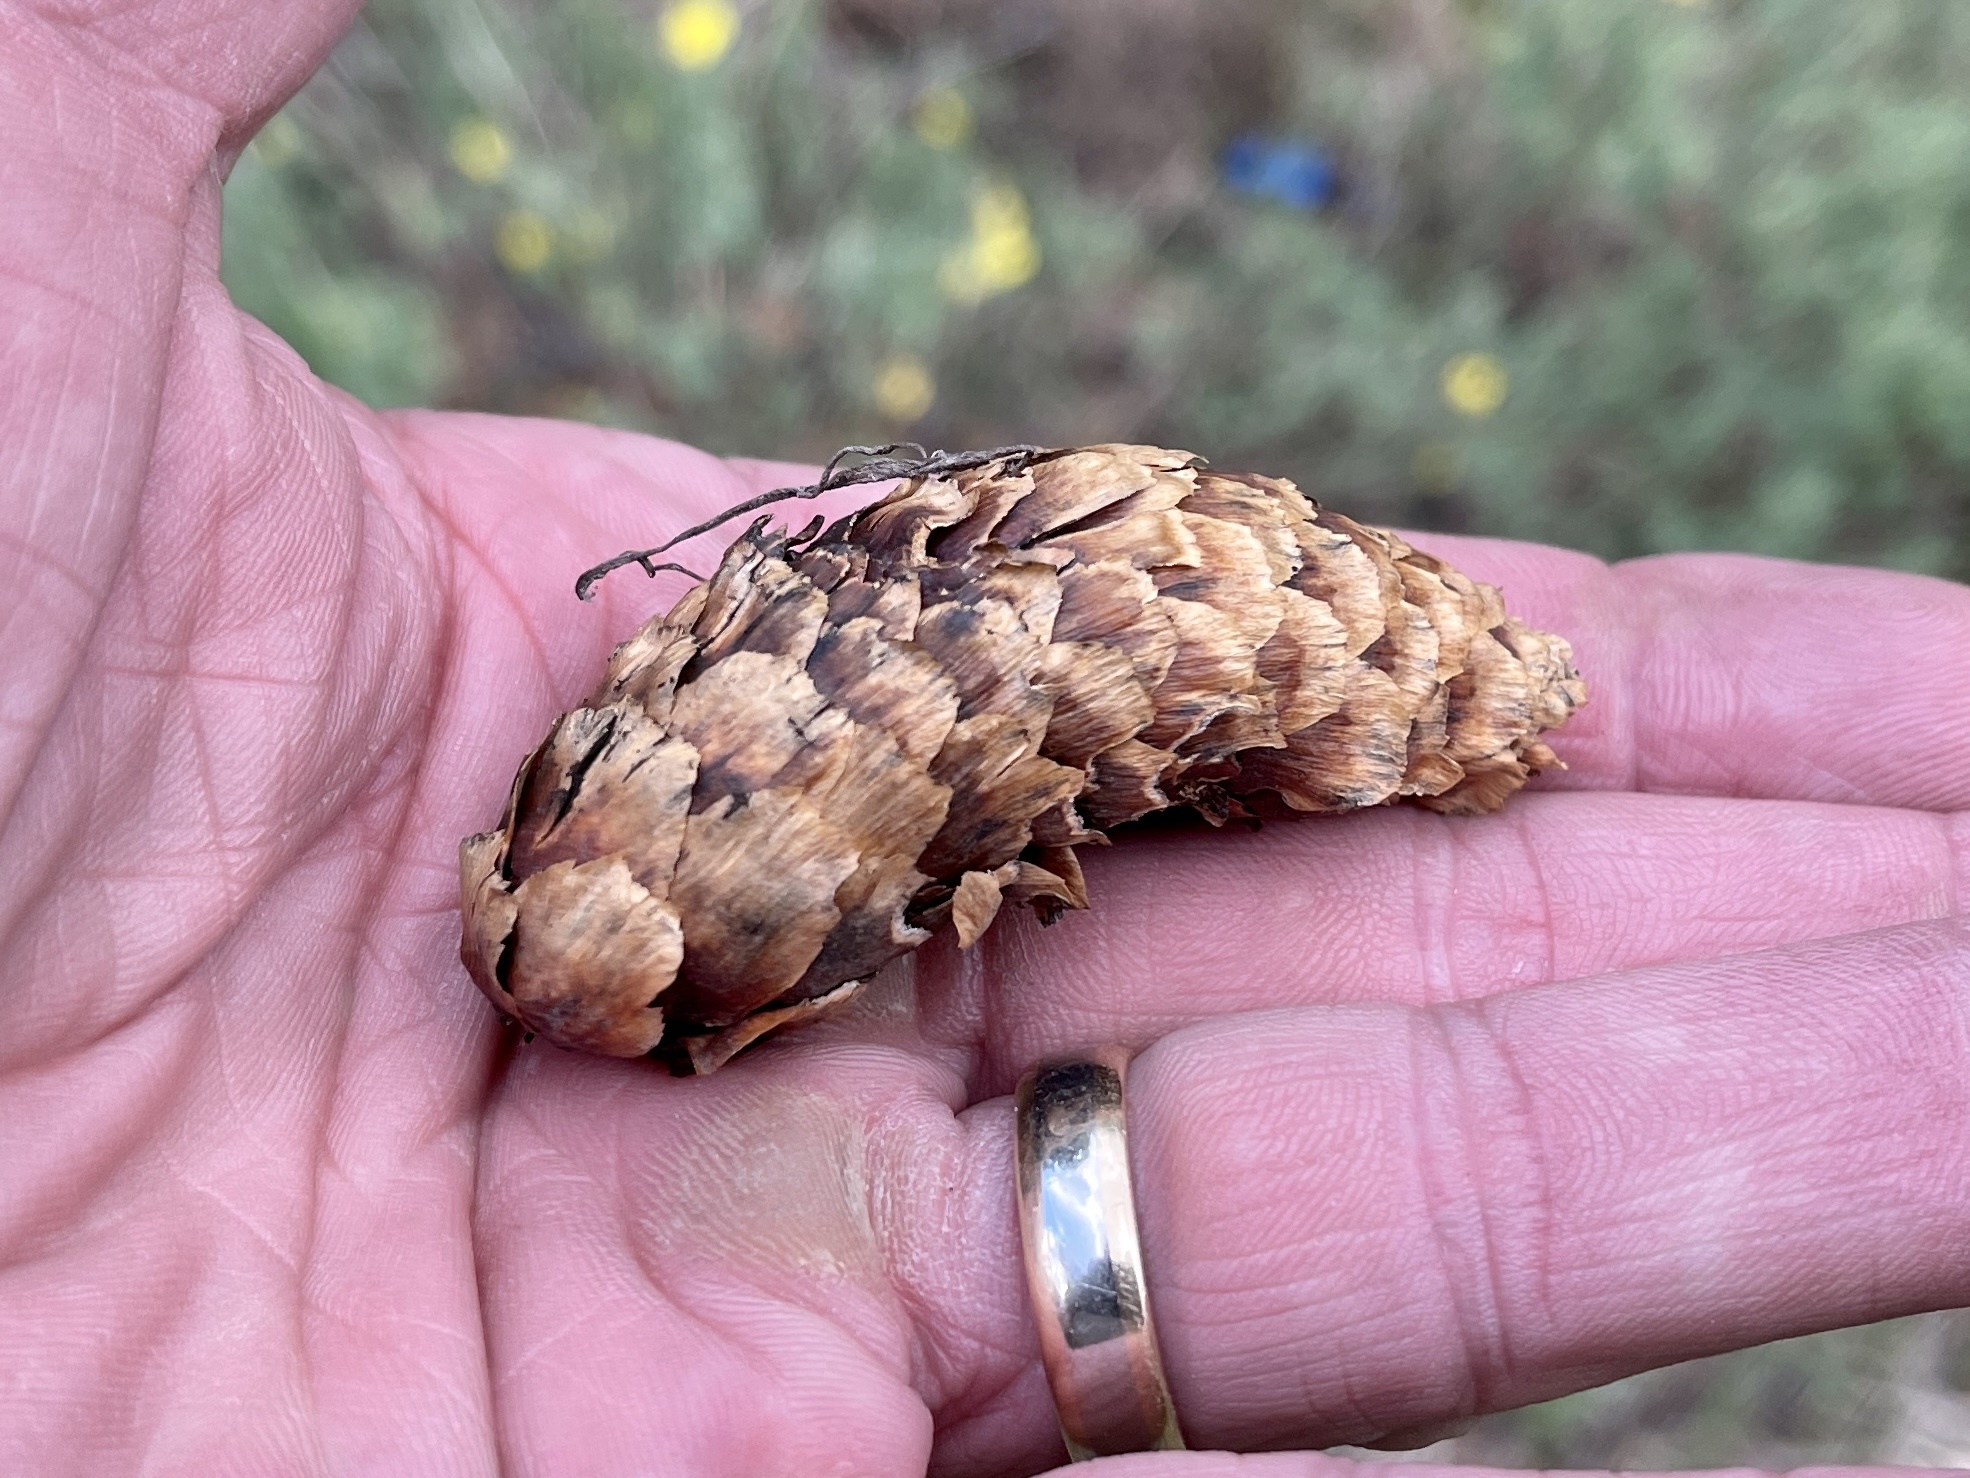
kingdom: Plantae
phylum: Tracheophyta
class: Pinopsida
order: Pinales
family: Pinaceae
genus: Picea
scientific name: Picea engelmannii
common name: Engelmann spruce
